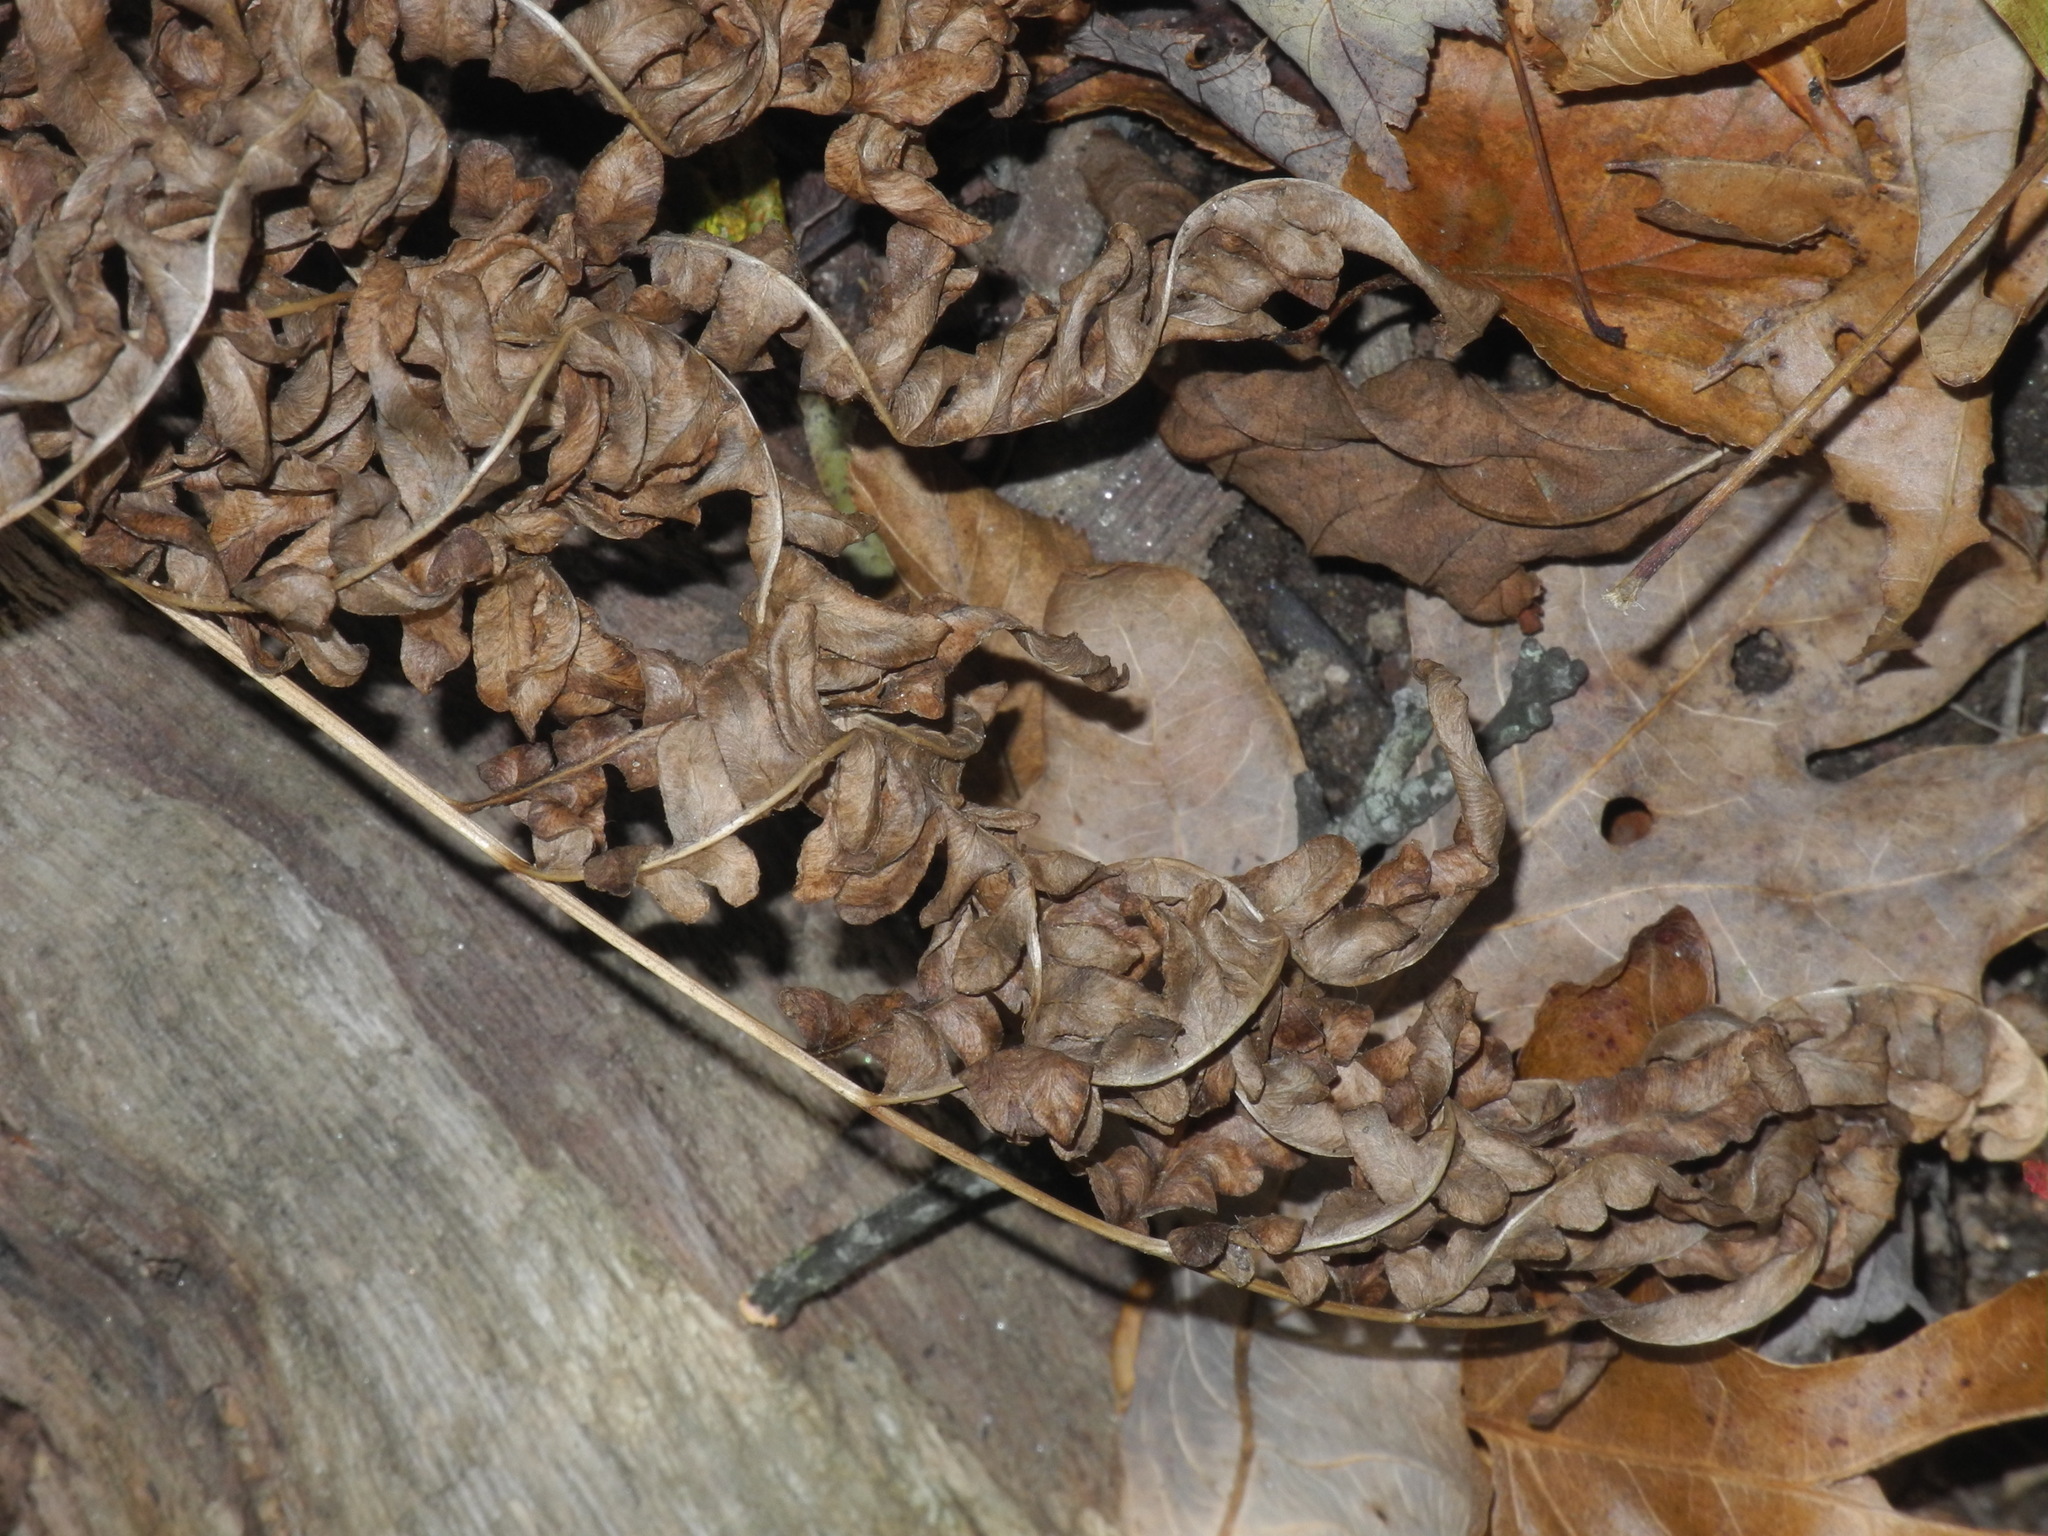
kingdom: Plantae
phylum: Tracheophyta
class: Polypodiopsida
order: Polypodiales
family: Dennstaedtiaceae
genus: Pteridium
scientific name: Pteridium aquilinum
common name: Bracken
